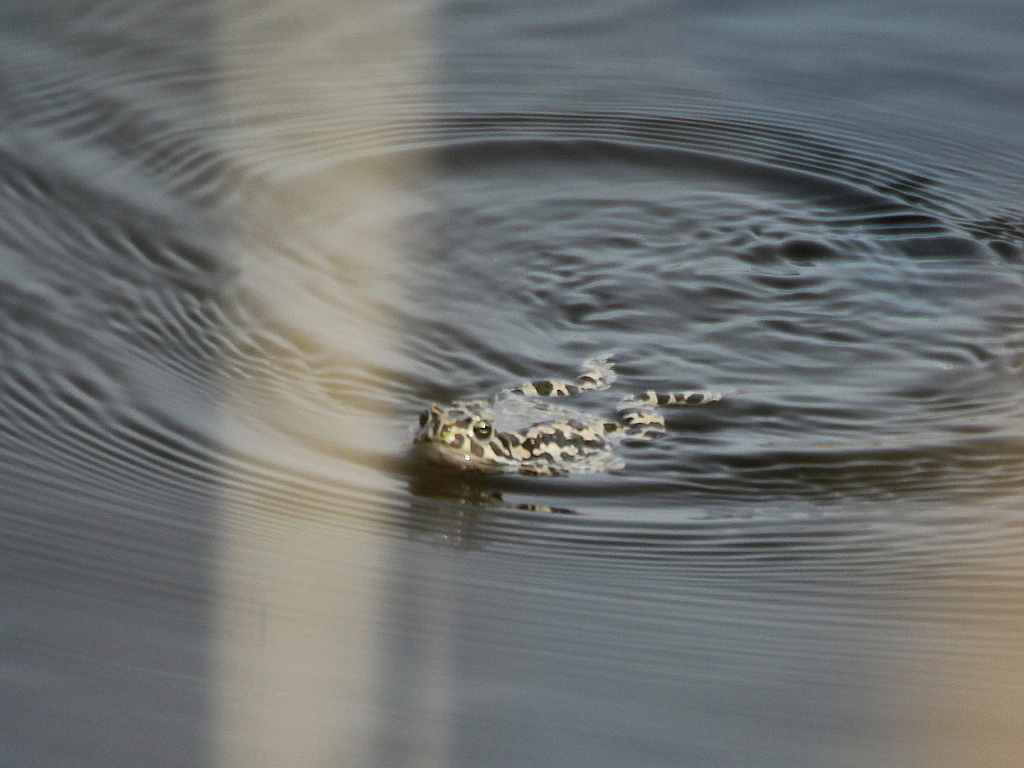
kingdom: Animalia
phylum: Chordata
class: Amphibia
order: Anura
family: Bufonidae
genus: Bufotes
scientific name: Bufotes viridis
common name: European green toad
